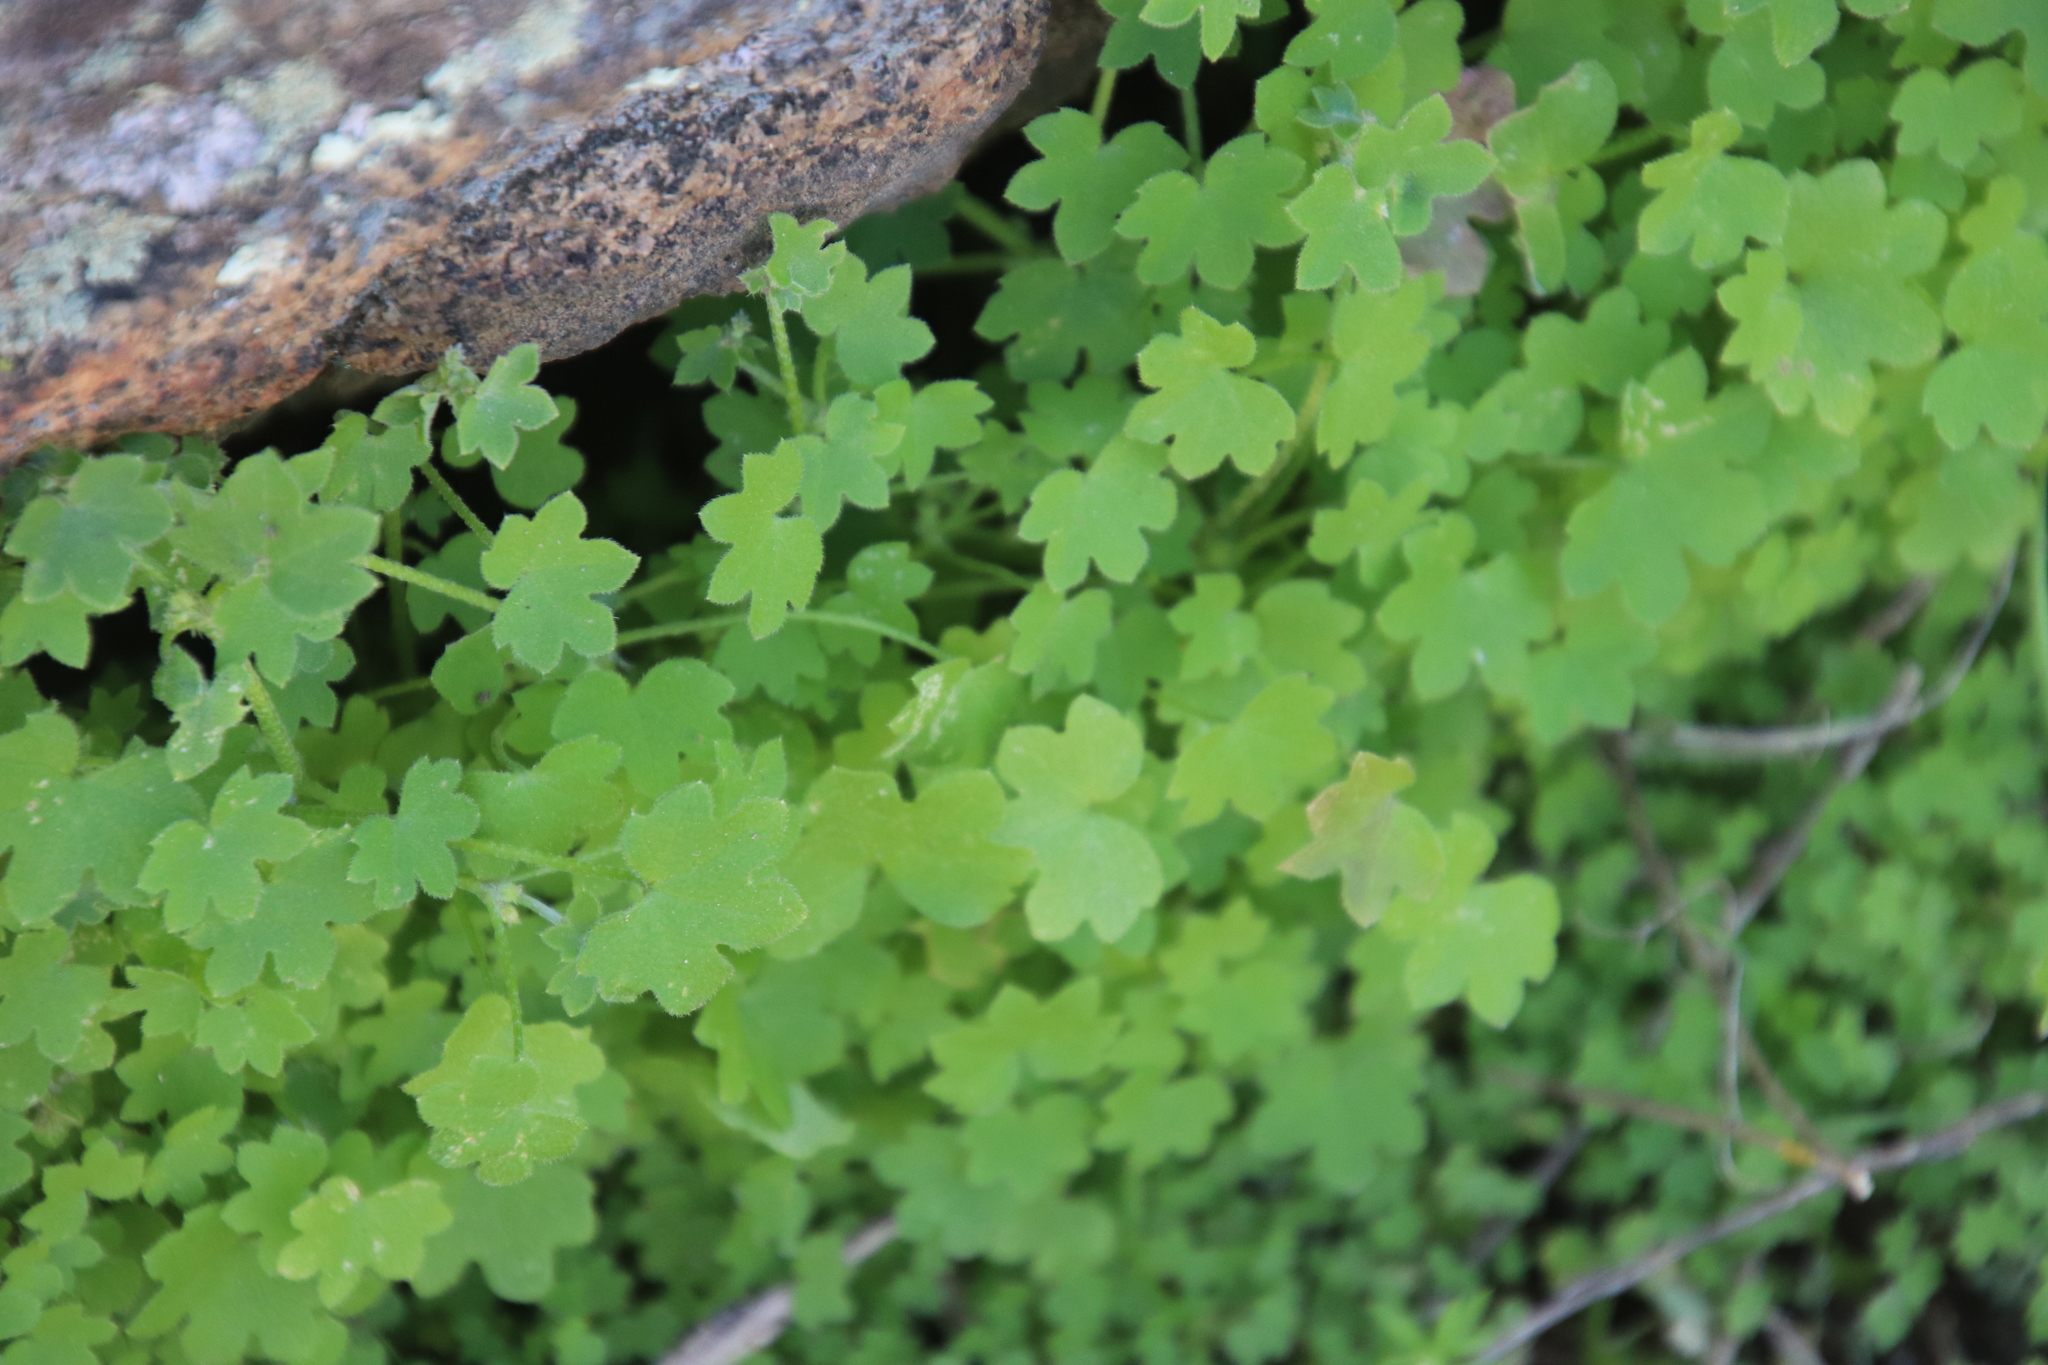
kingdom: Plantae
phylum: Tracheophyta
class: Magnoliopsida
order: Apiales
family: Apiaceae
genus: Bowlesia
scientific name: Bowlesia incana
